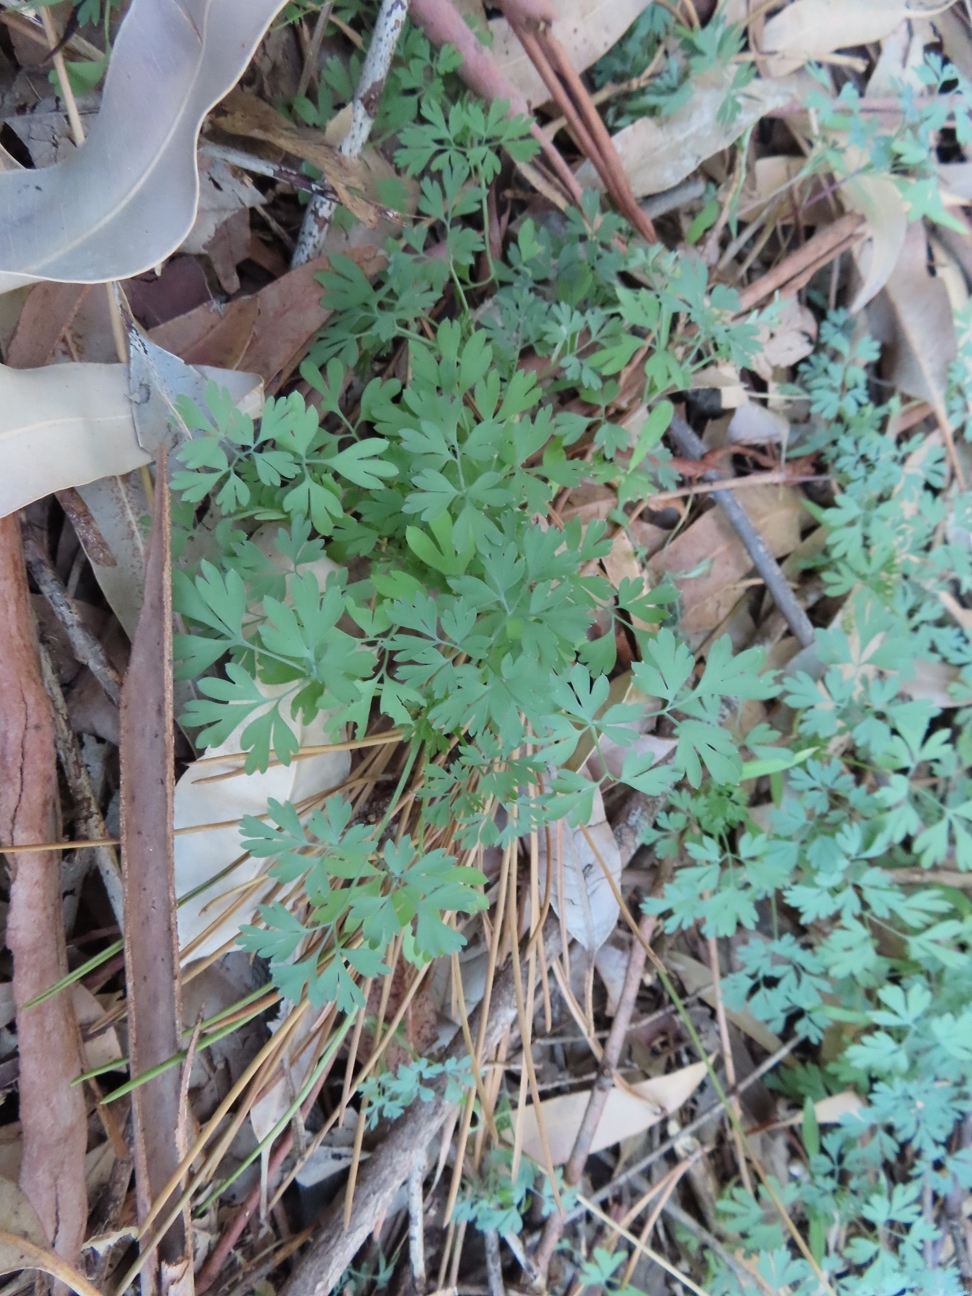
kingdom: Plantae
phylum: Tracheophyta
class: Magnoliopsida
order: Ranunculales
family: Papaveraceae
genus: Fumaria
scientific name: Fumaria muralis
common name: Common ramping-fumitory
